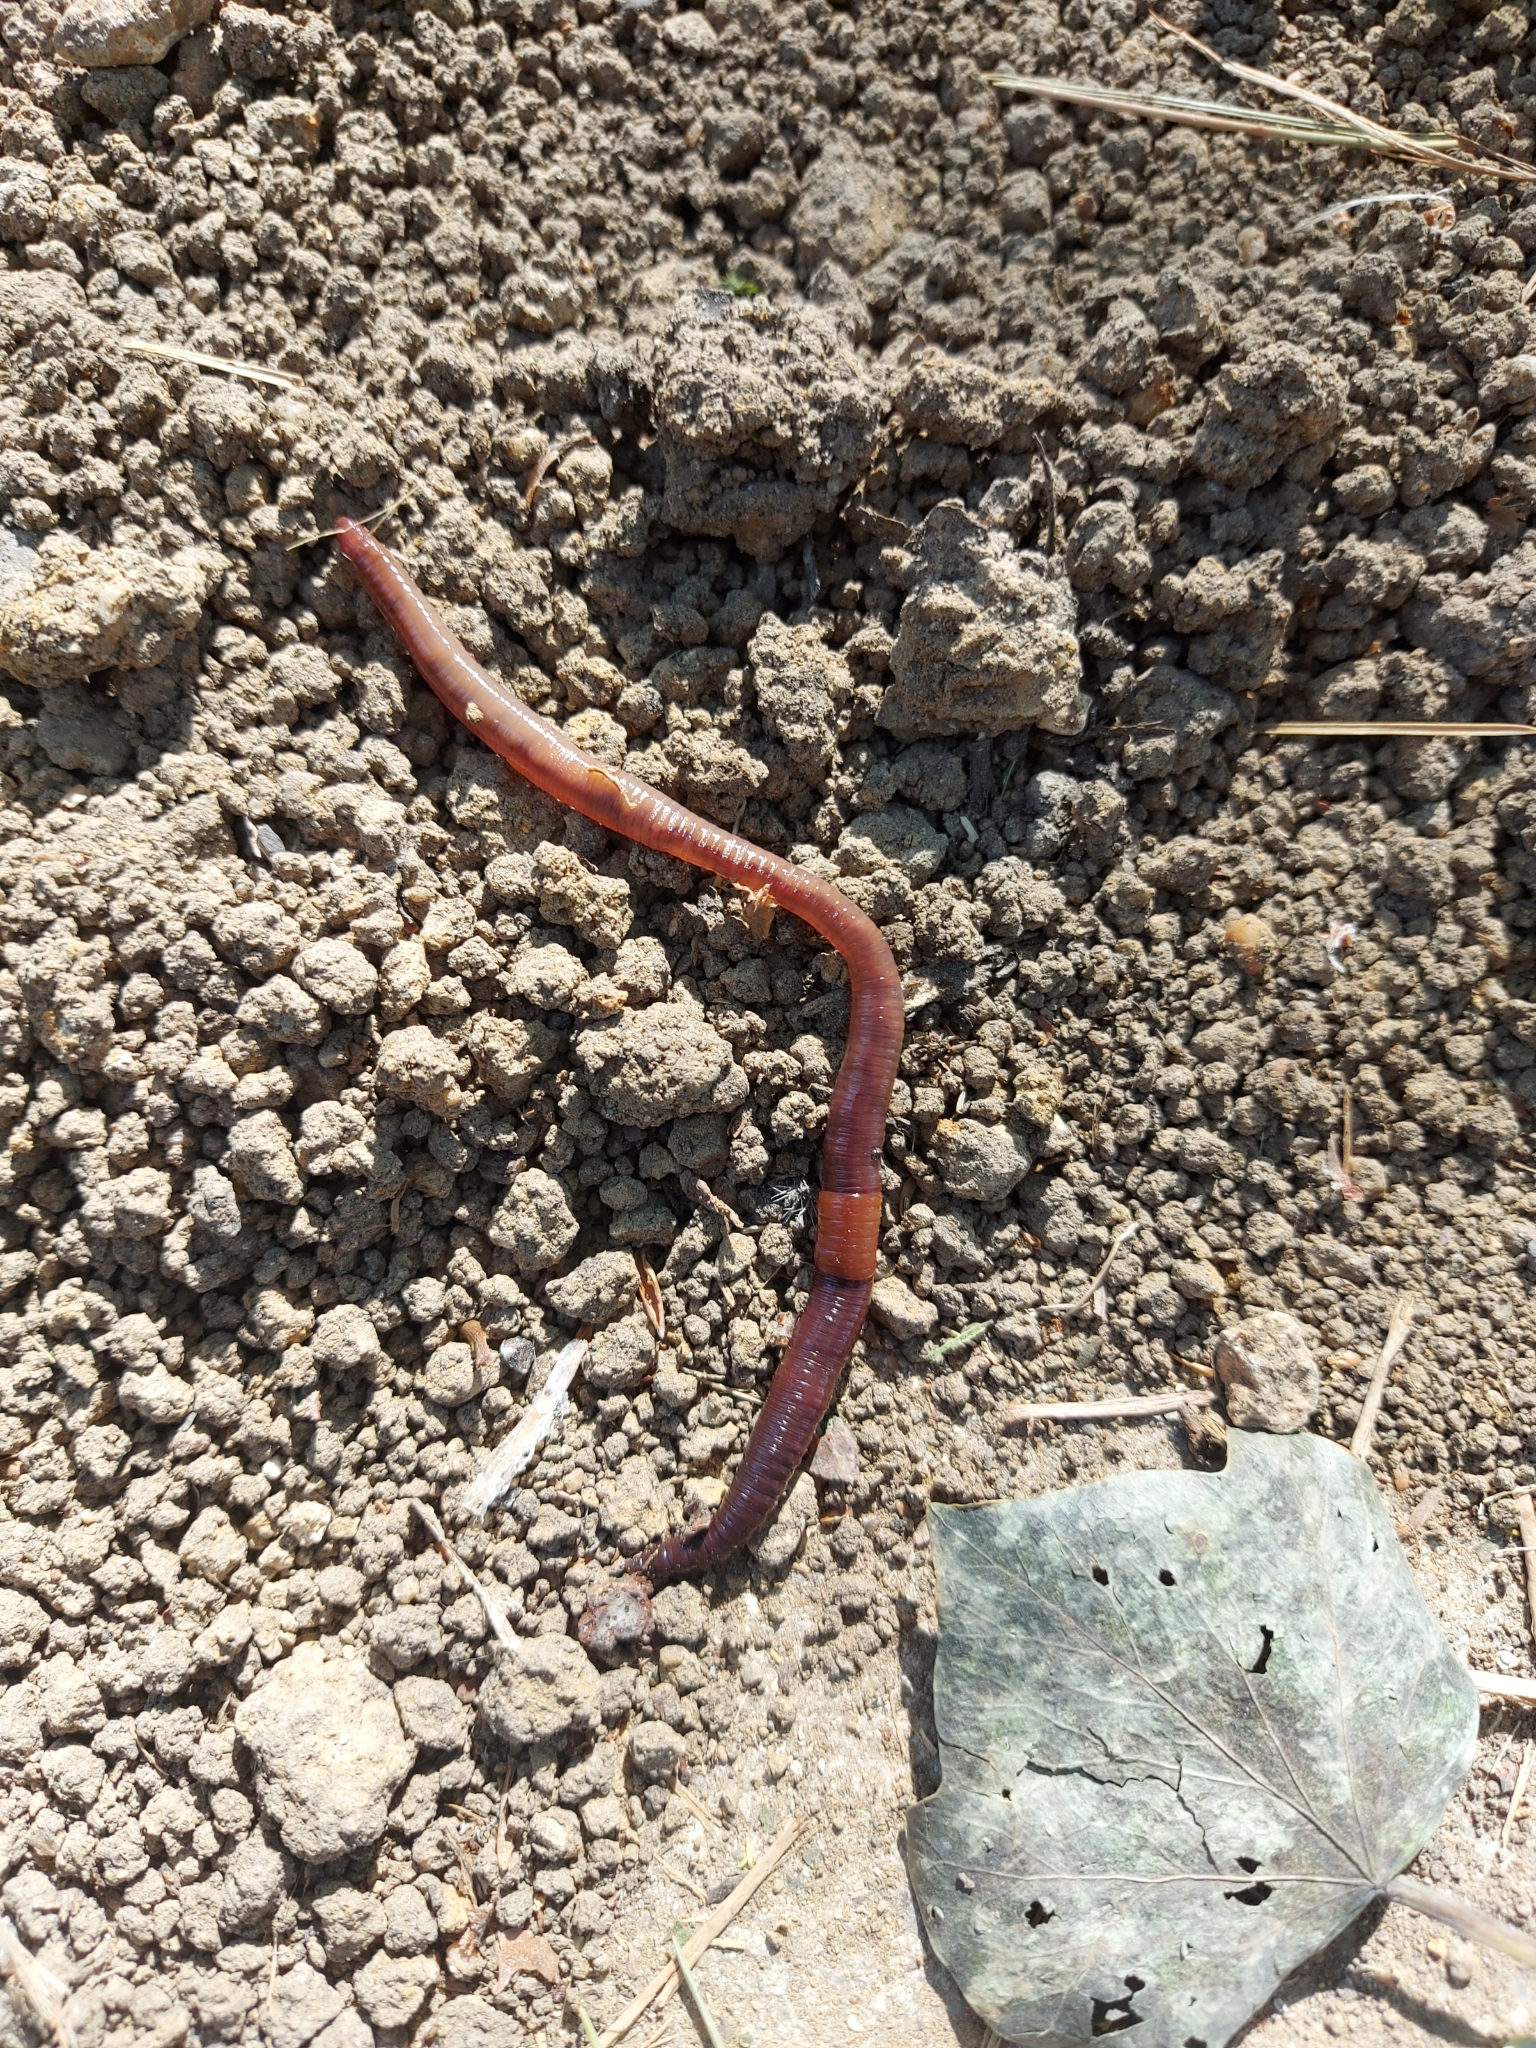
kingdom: Animalia
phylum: Annelida
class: Clitellata
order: Crassiclitellata
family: Lumbricidae
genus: Lumbricus
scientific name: Lumbricus terrestris
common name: Common earthworm
